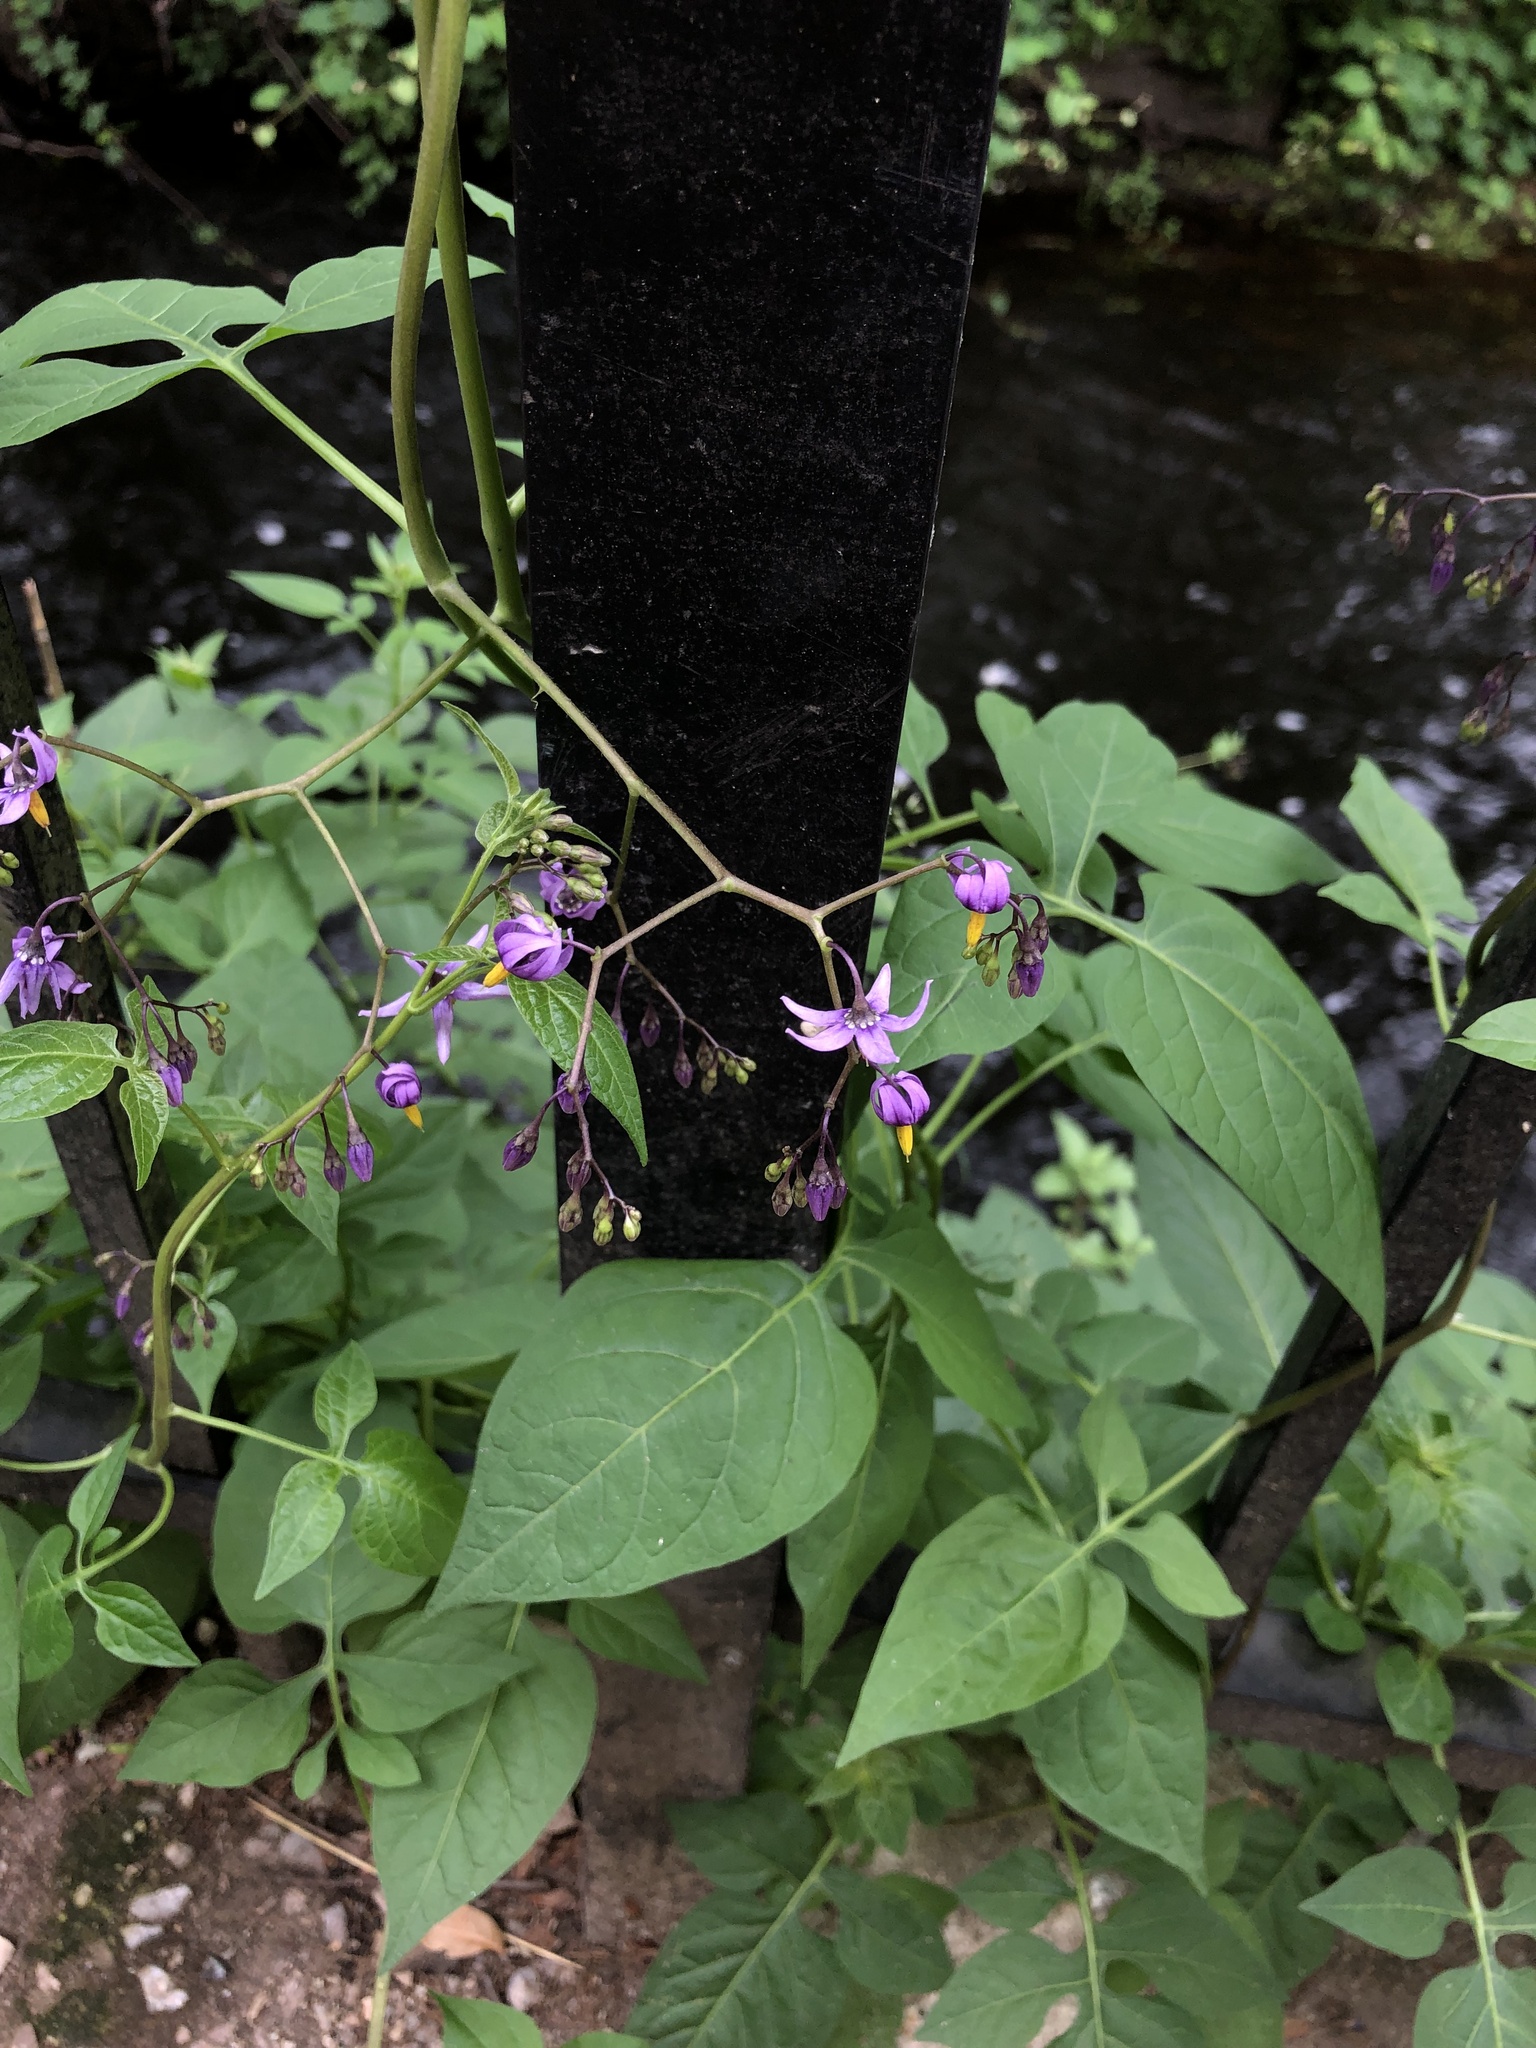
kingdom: Plantae
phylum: Tracheophyta
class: Magnoliopsida
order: Solanales
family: Solanaceae
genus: Solanum
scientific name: Solanum dulcamara
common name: Climbing nightshade
